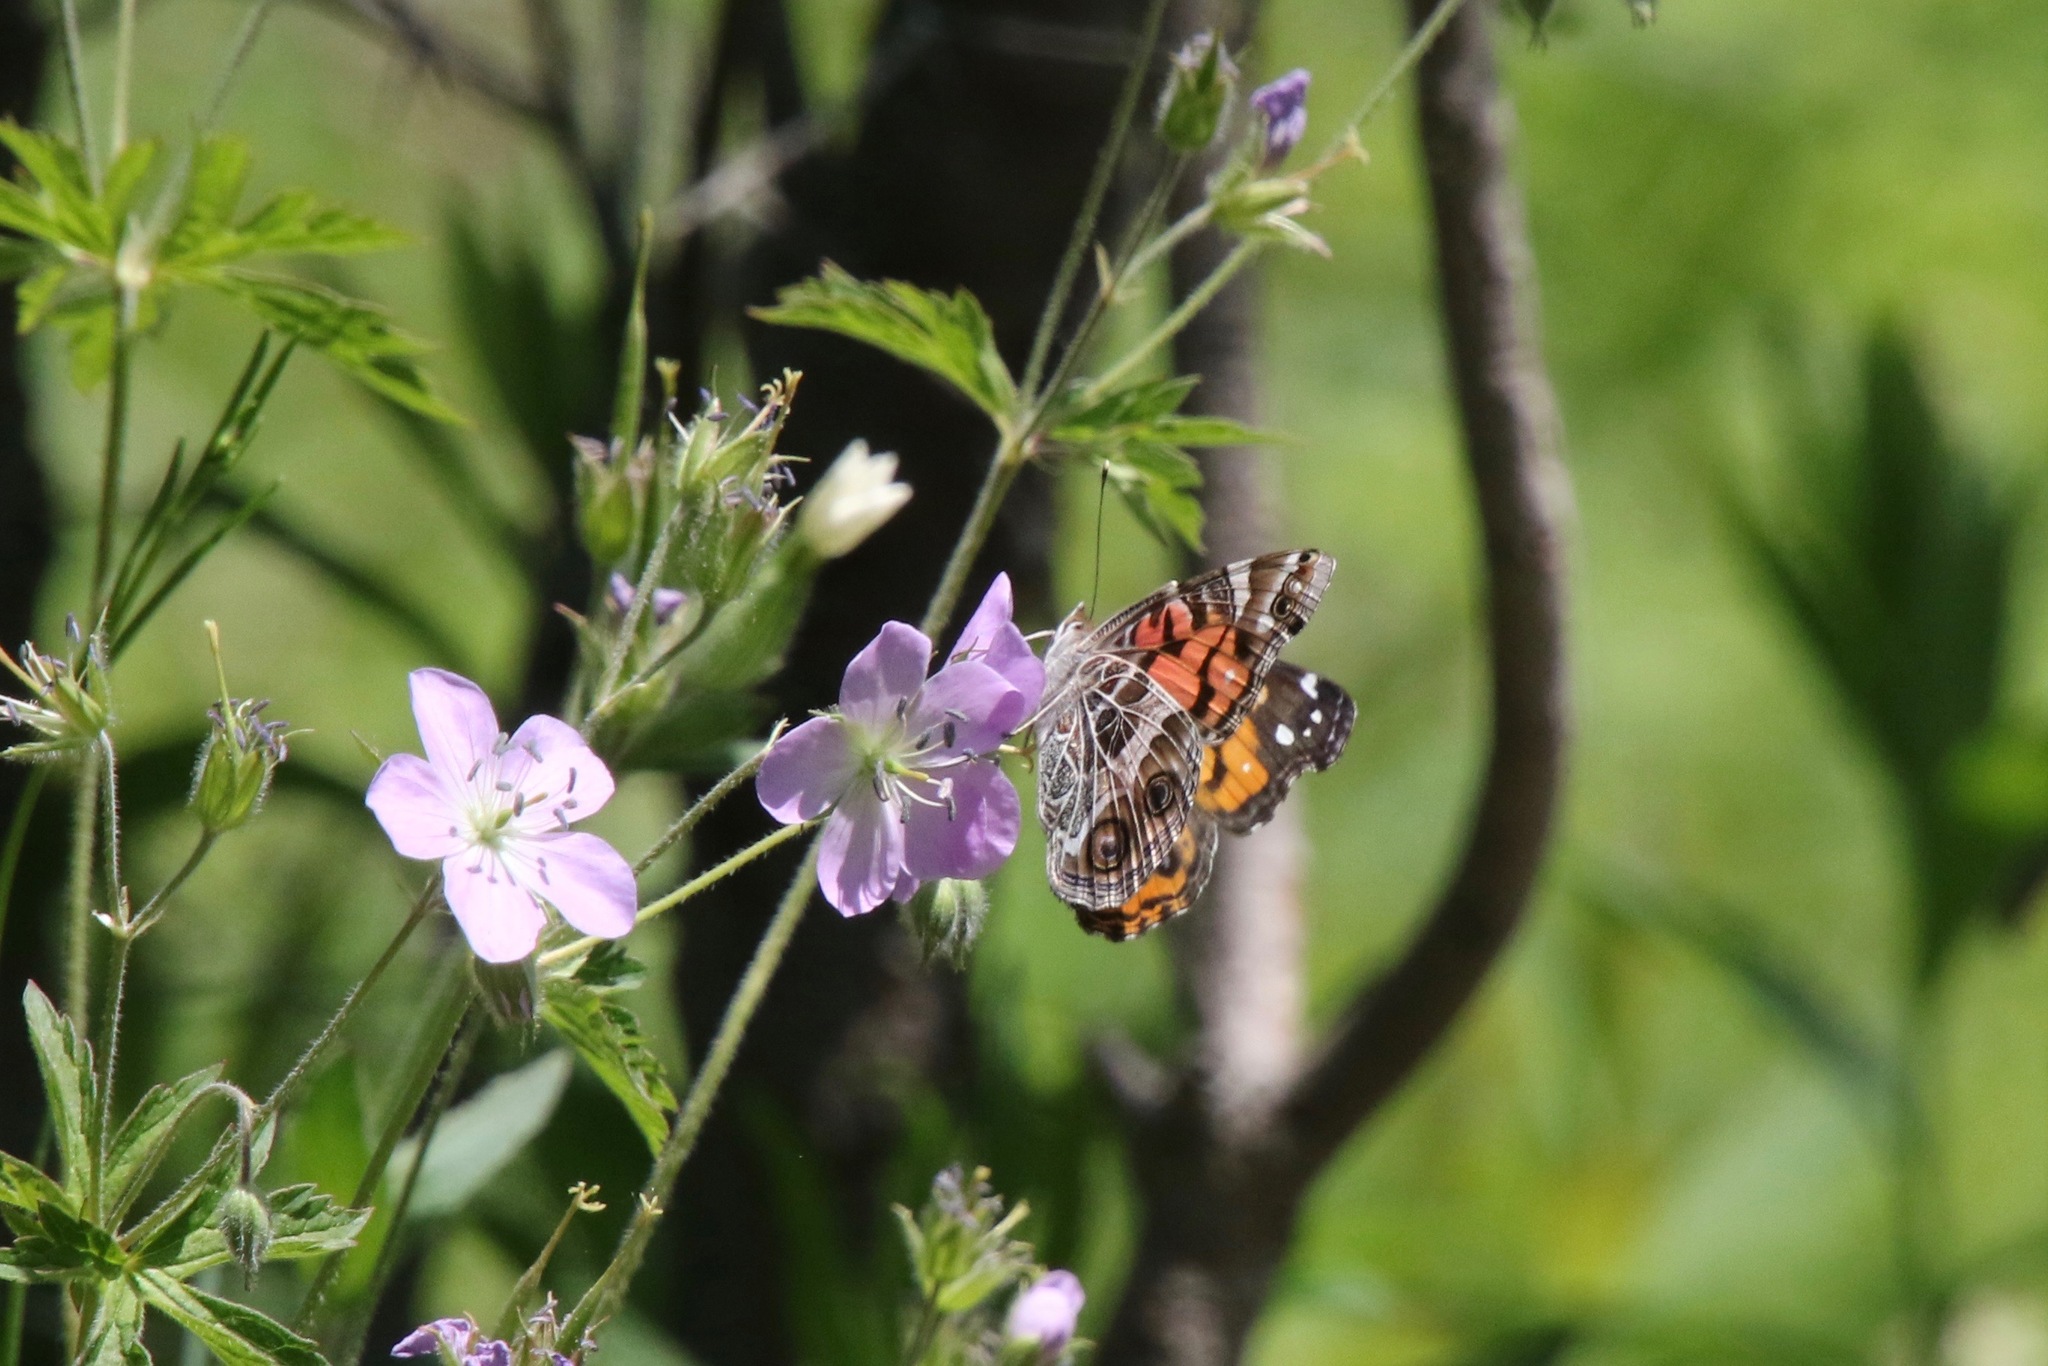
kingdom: Animalia
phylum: Arthropoda
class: Insecta
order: Lepidoptera
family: Nymphalidae
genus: Vanessa
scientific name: Vanessa virginiensis
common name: American lady
